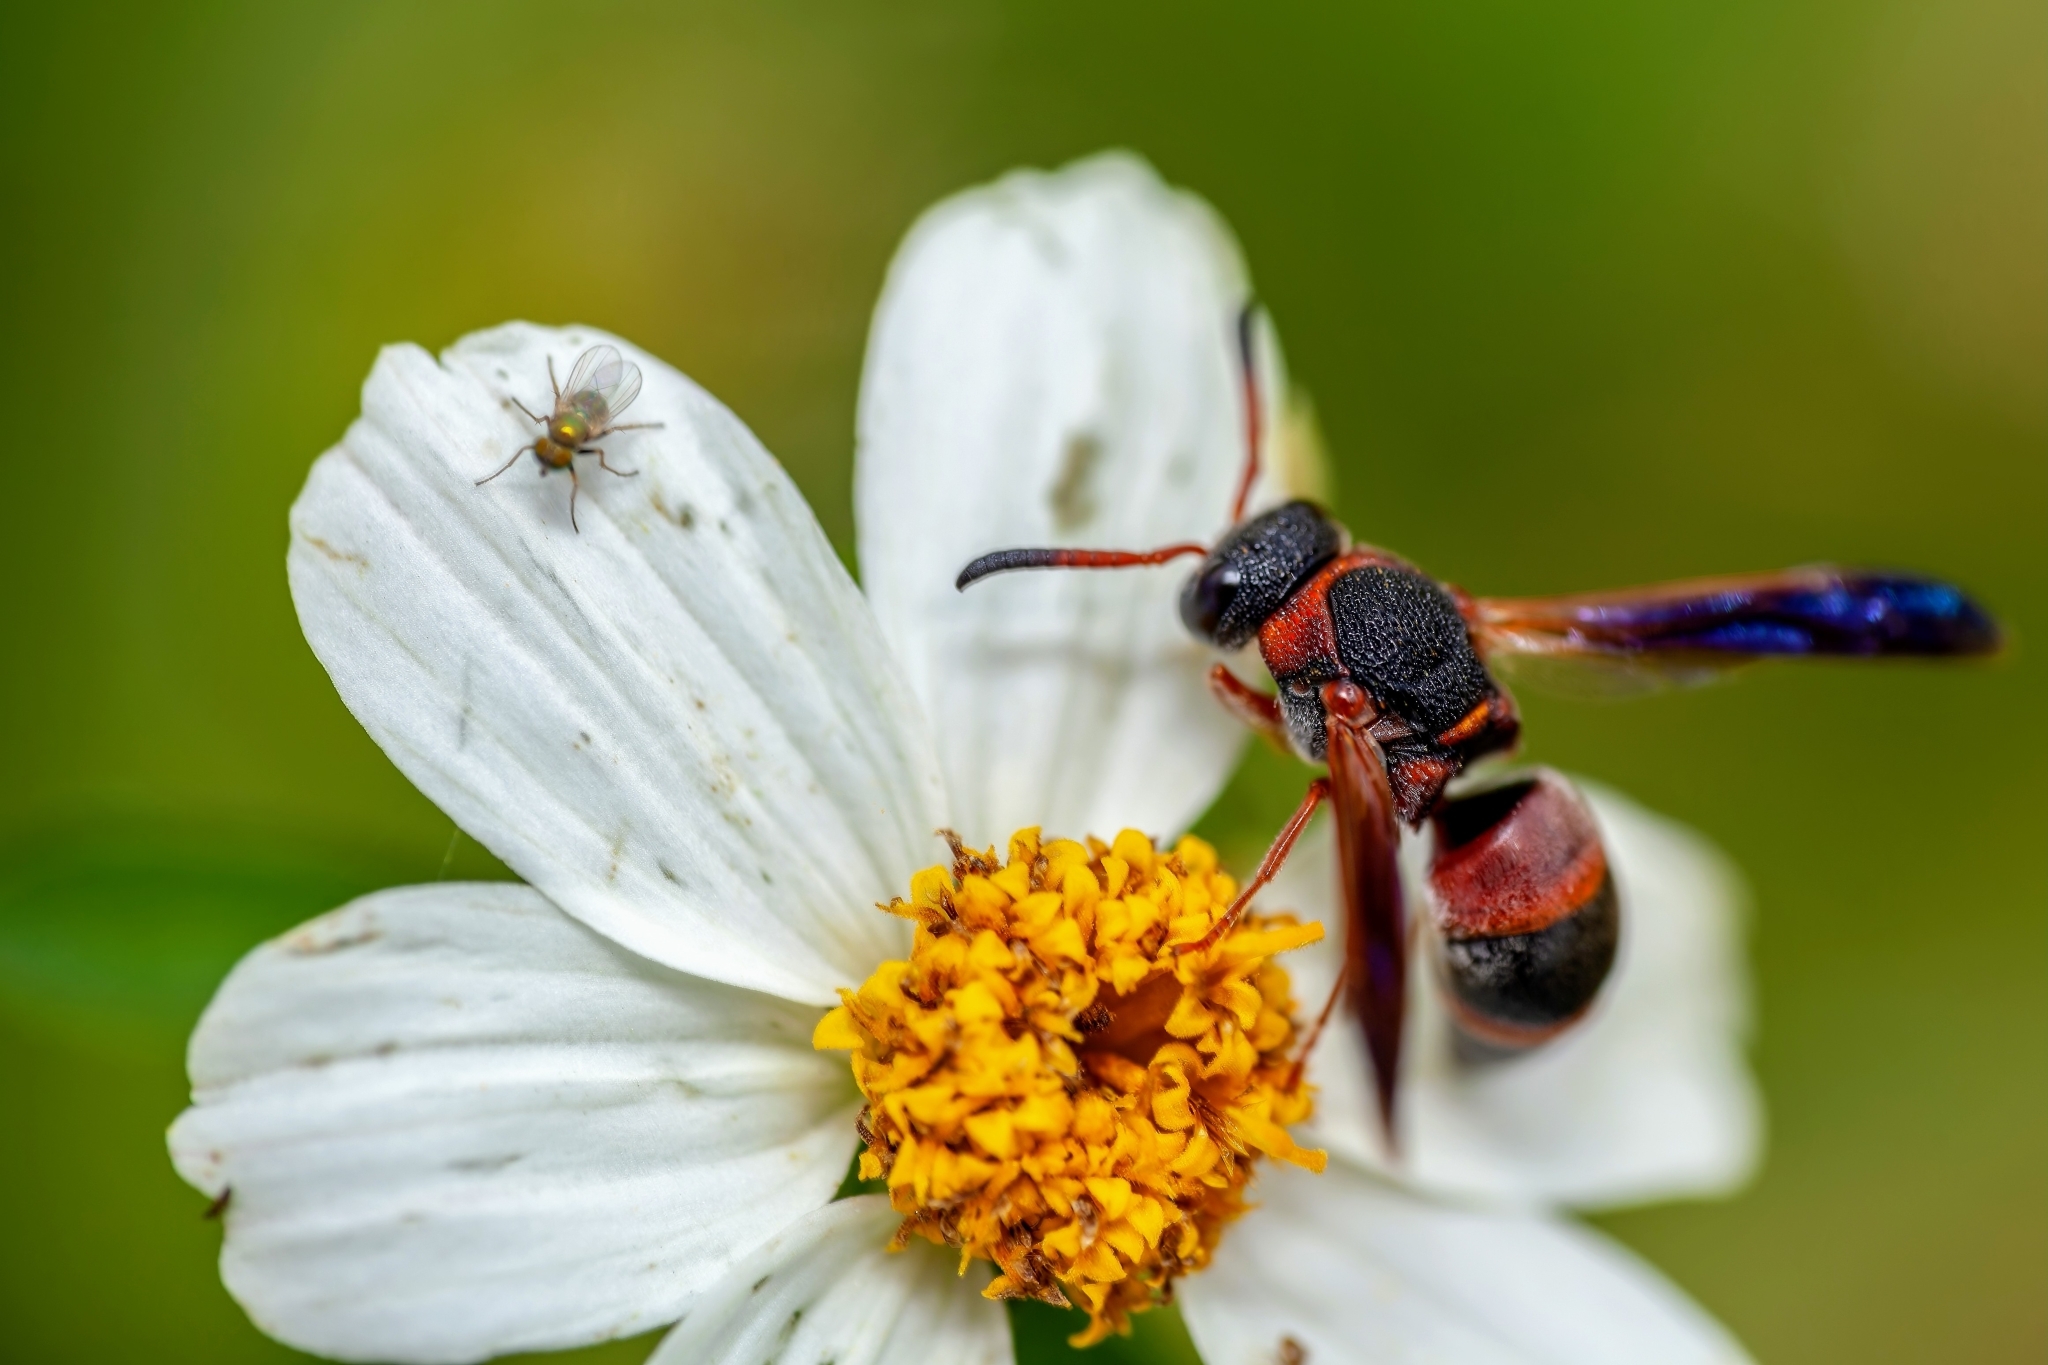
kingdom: Animalia
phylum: Arthropoda
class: Insecta
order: Hymenoptera
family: Eumenidae
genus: Pachodynerus
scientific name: Pachodynerus erynnis
